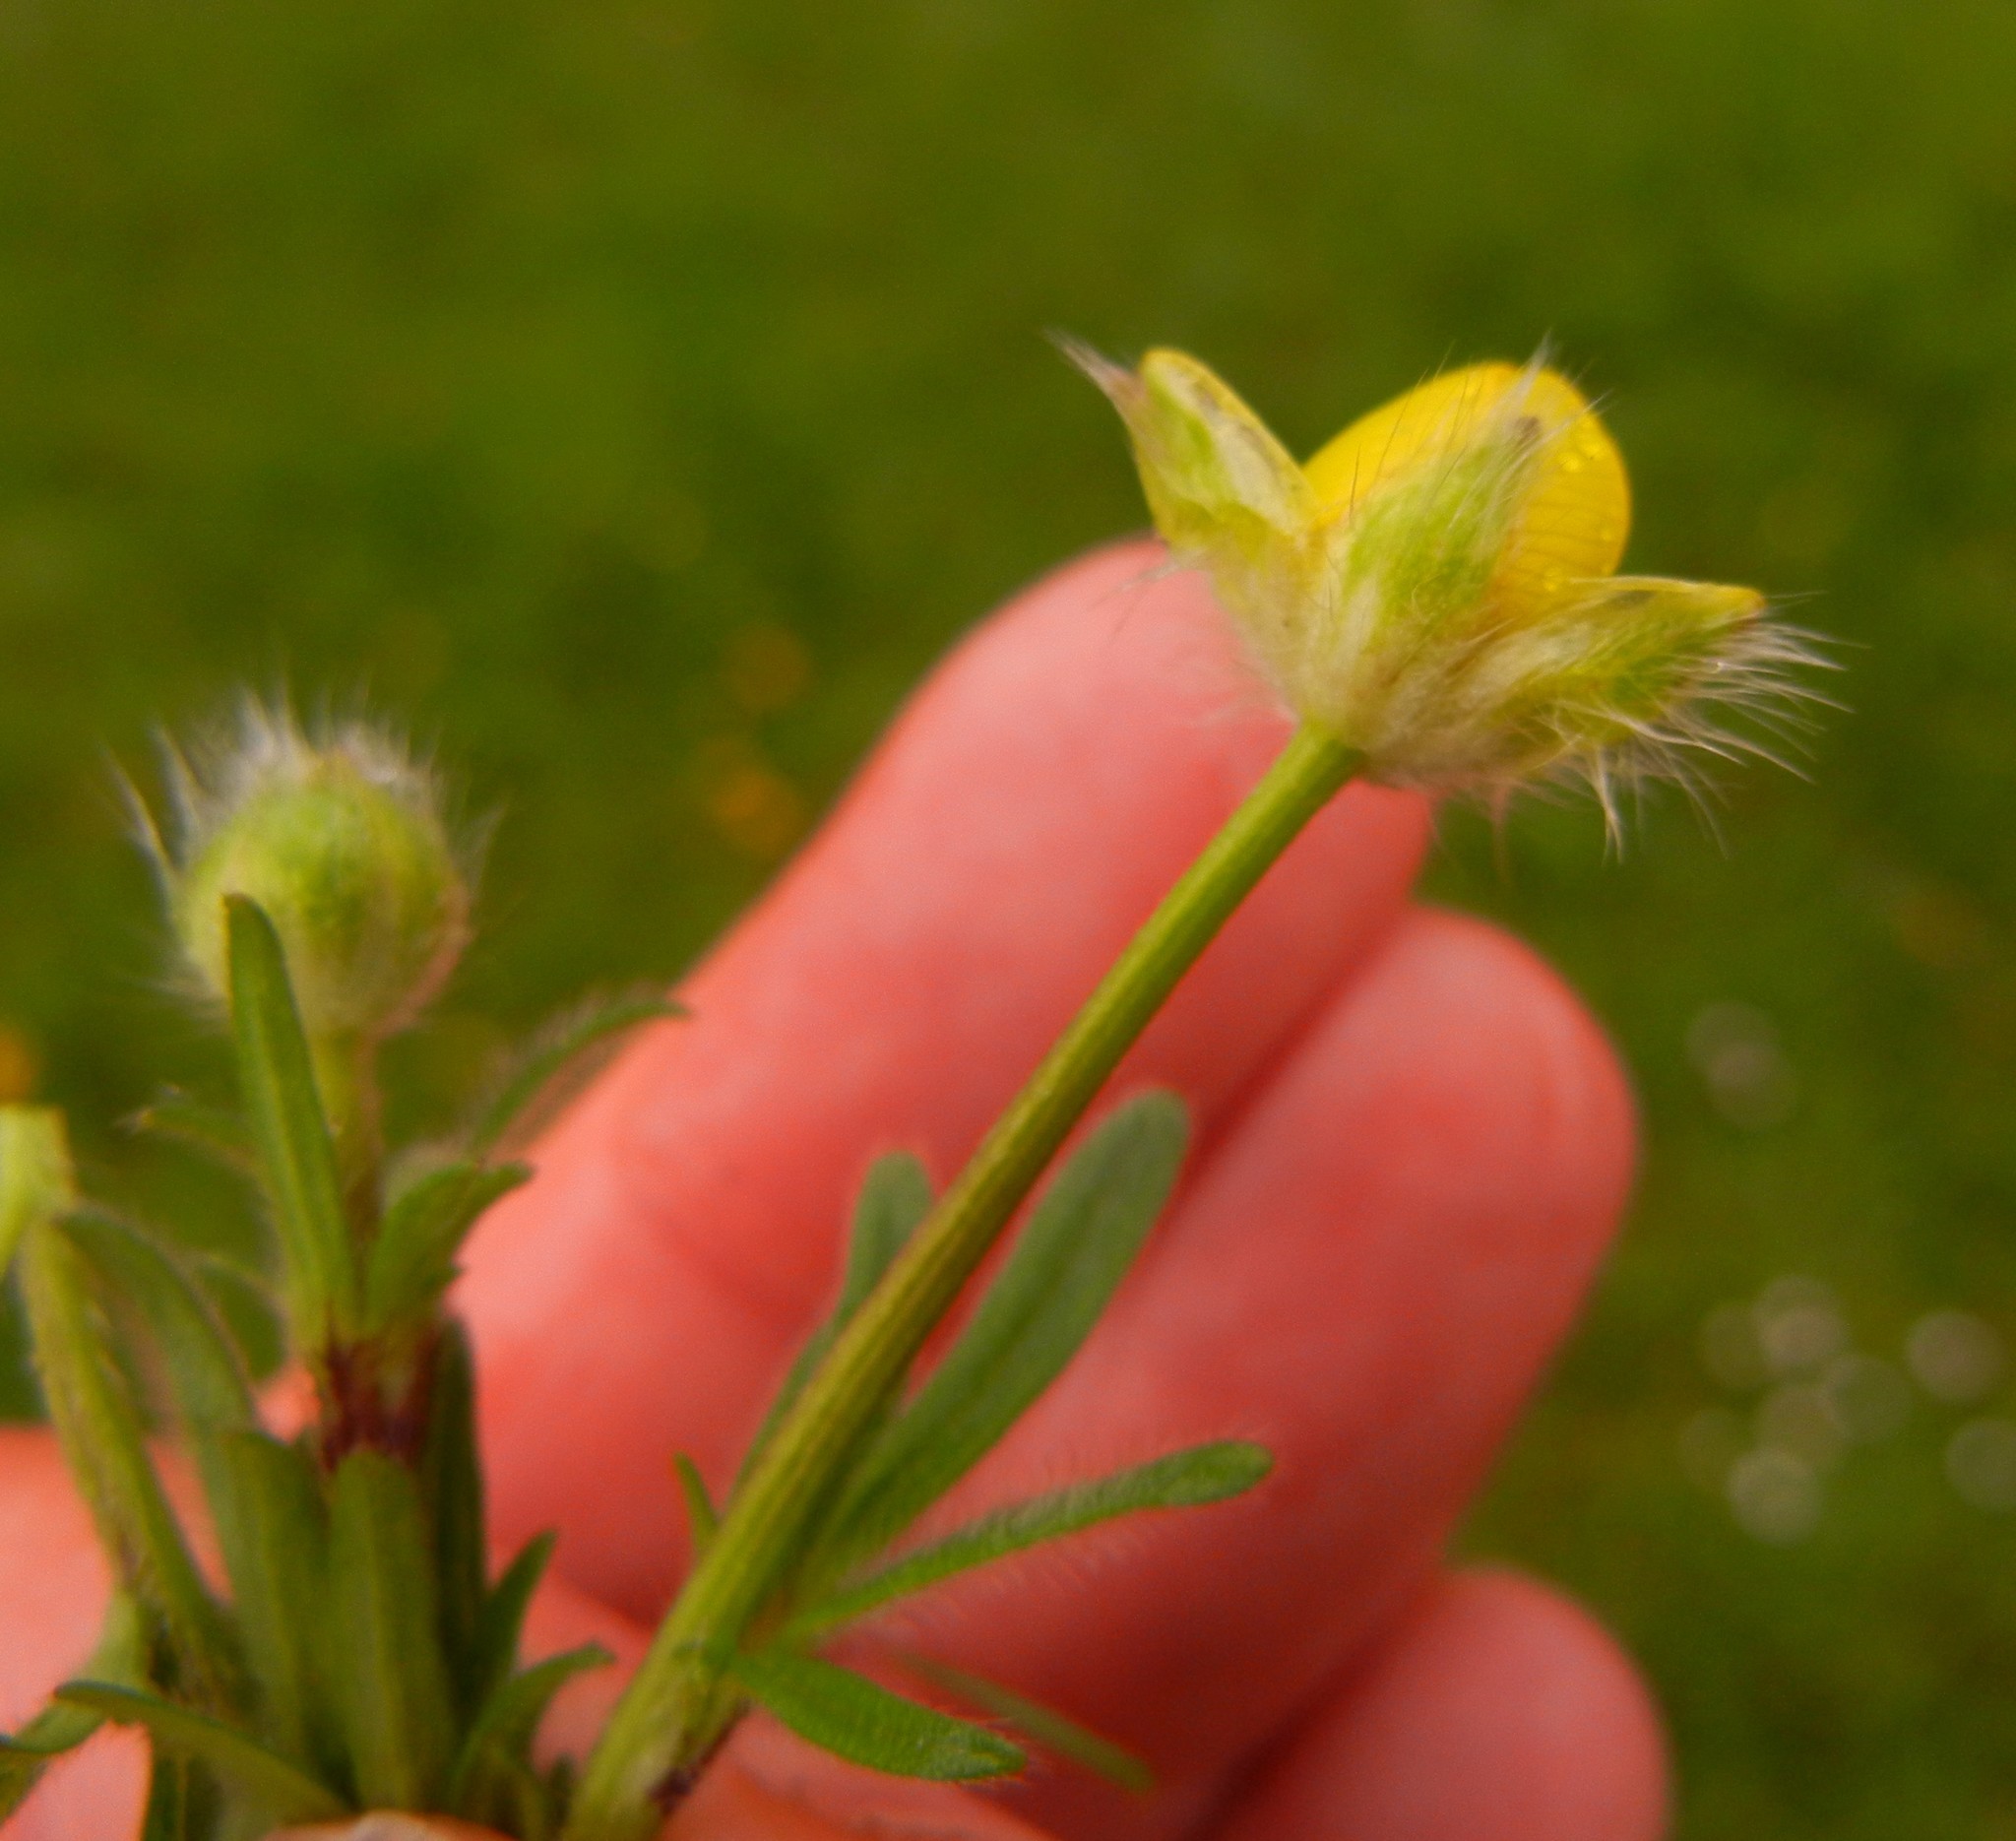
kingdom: Plantae
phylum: Tracheophyta
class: Magnoliopsida
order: Ranunculales
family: Ranunculaceae
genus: Ranunculus
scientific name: Ranunculus acris
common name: Meadow buttercup
